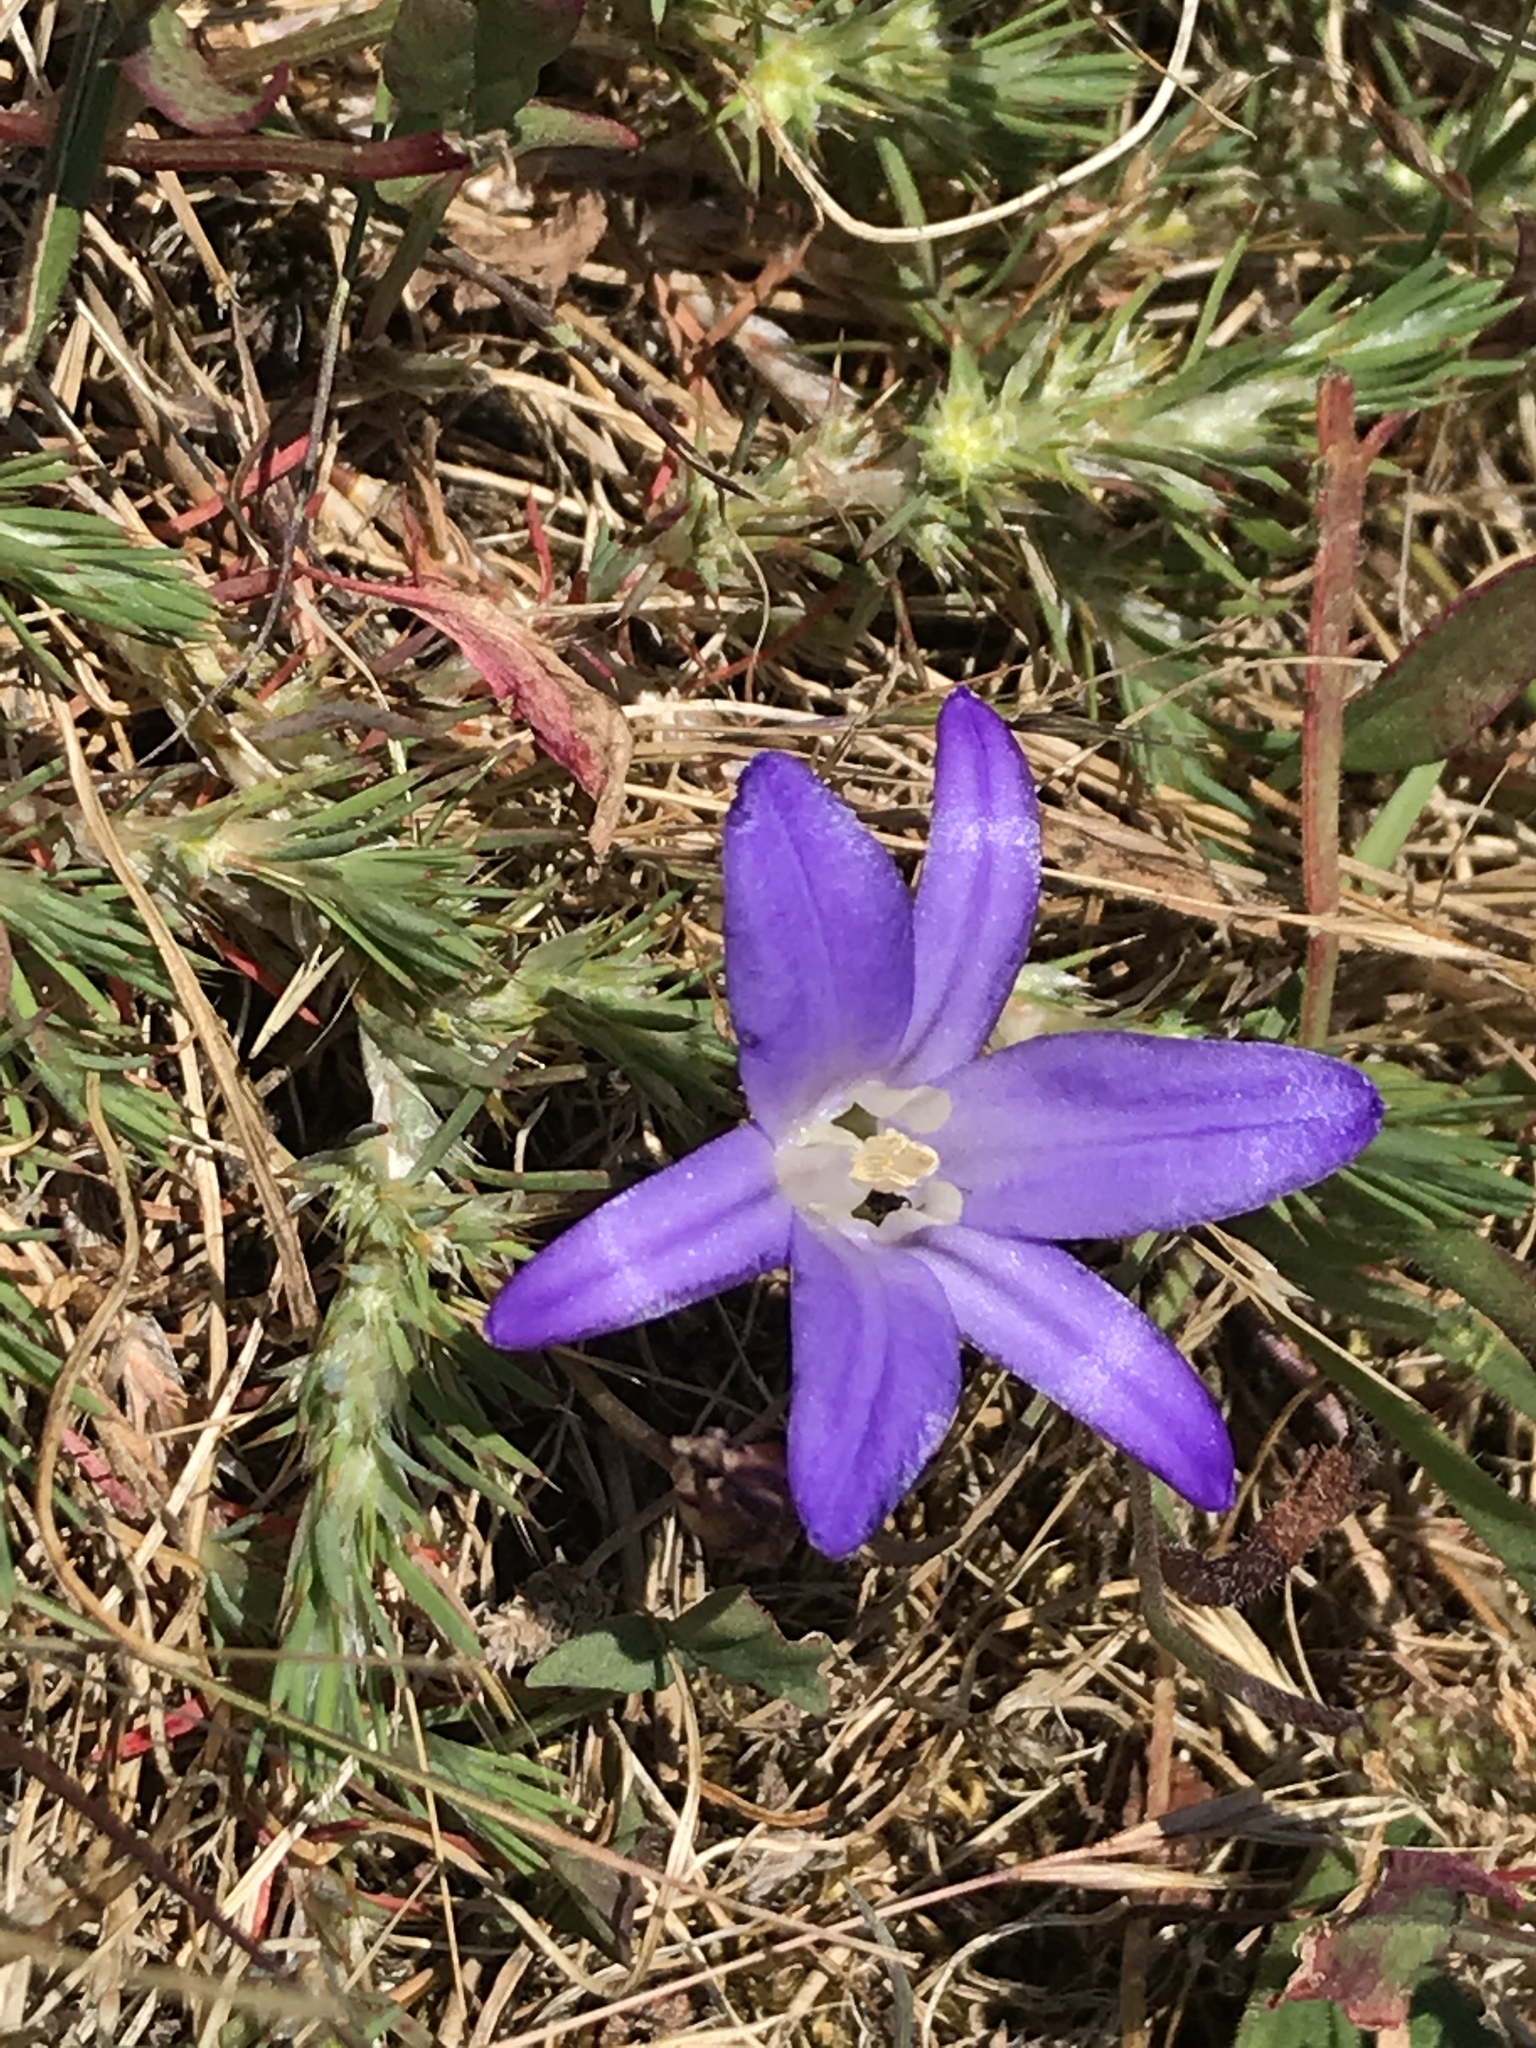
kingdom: Plantae
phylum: Tracheophyta
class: Liliopsida
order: Asparagales
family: Asparagaceae
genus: Brodiaea
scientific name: Brodiaea terrestris
